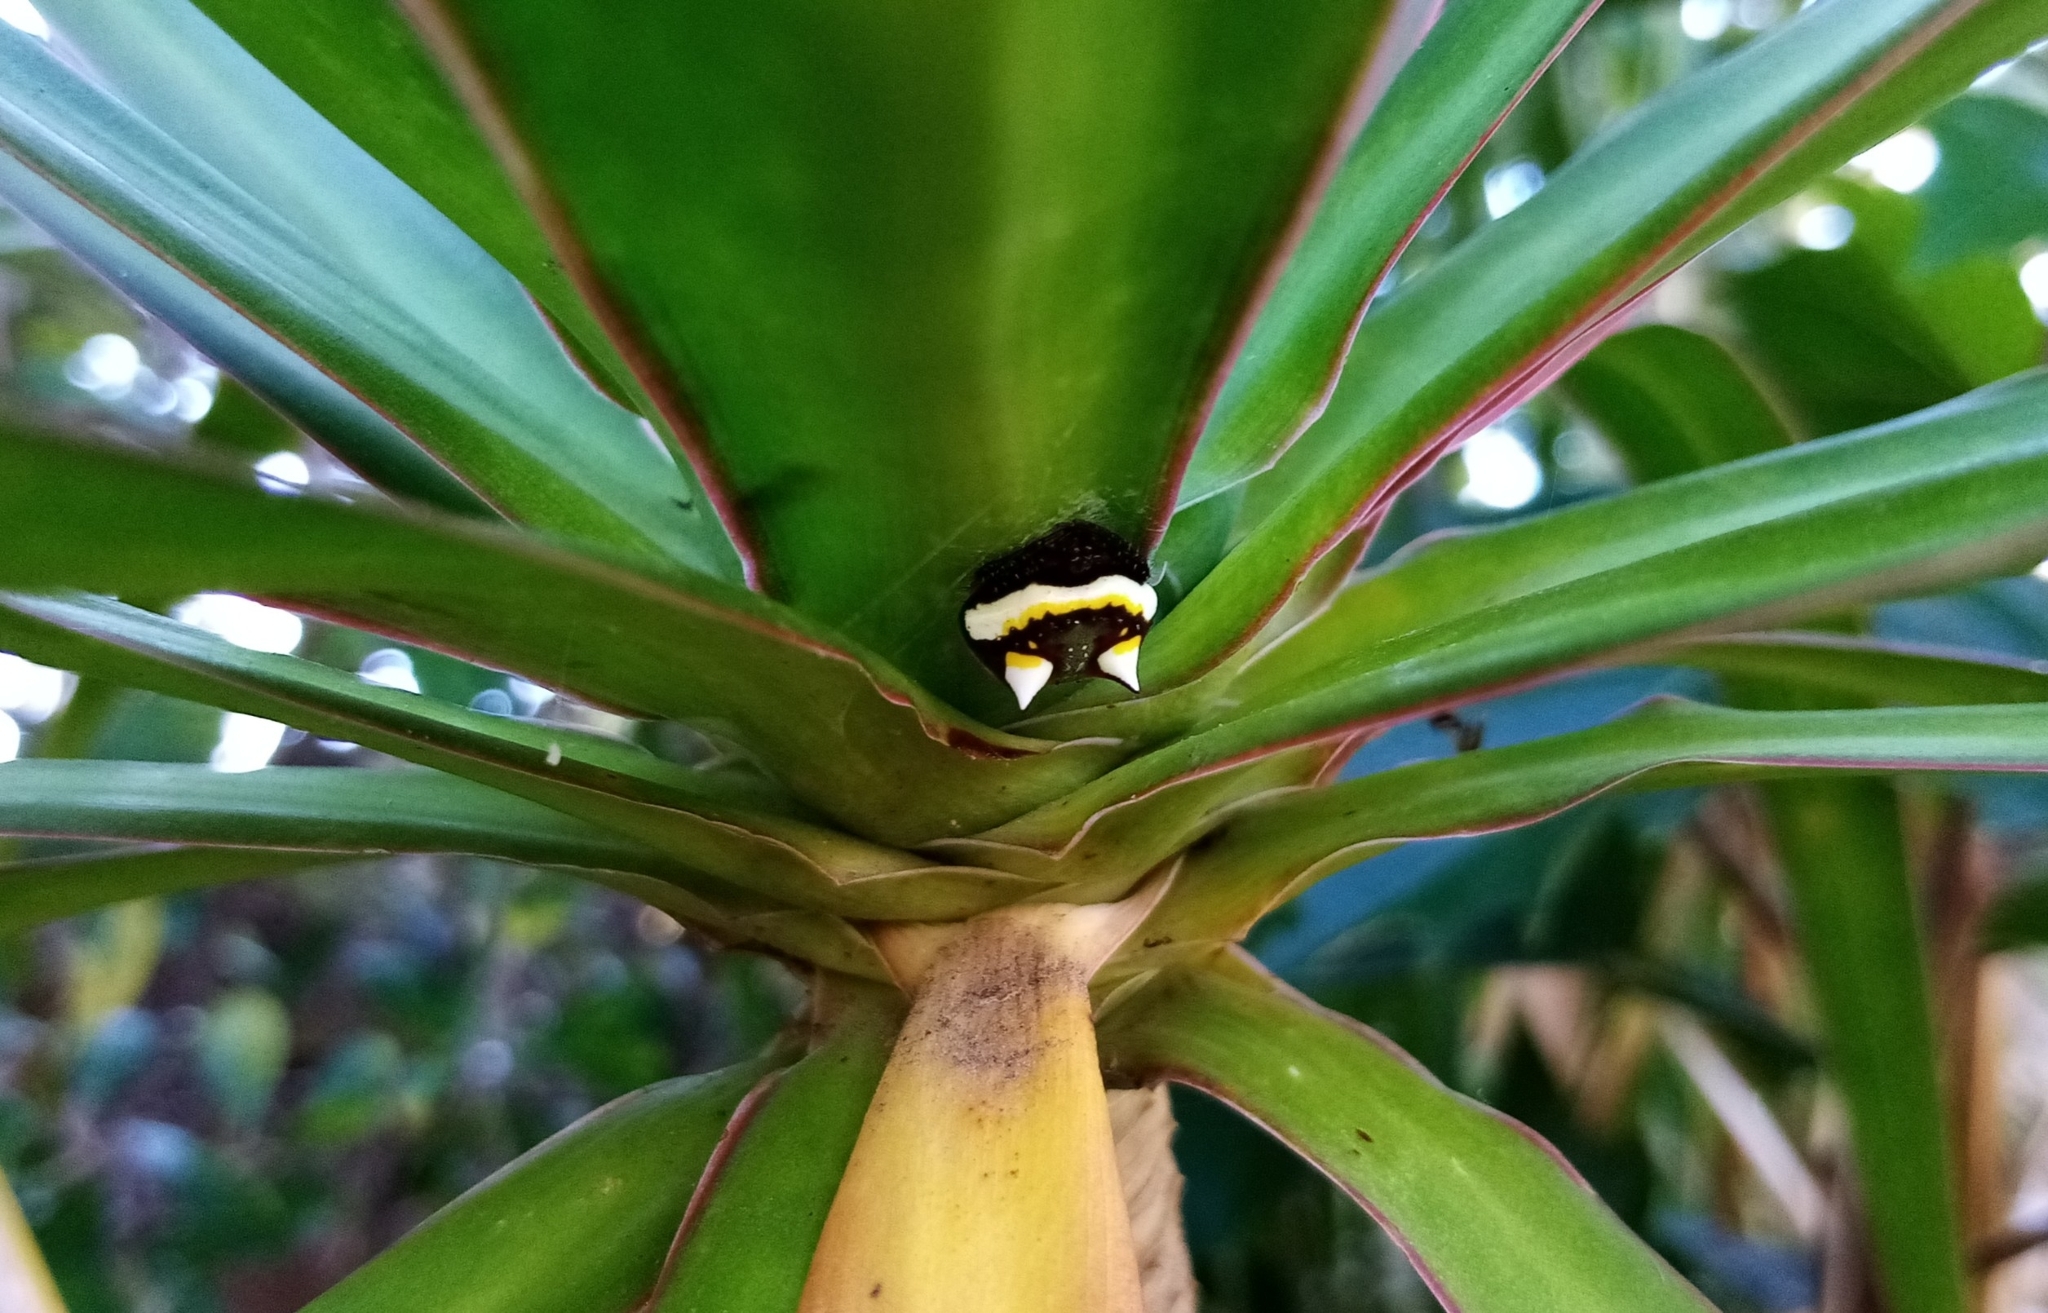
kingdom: Animalia
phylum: Arthropoda
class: Arachnida
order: Araneae
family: Araneidae
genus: Poecilopachys
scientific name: Poecilopachys australasia
